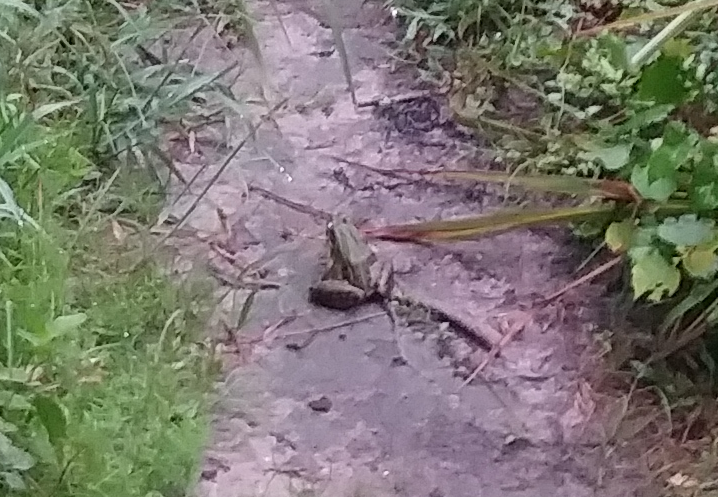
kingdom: Animalia
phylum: Chordata
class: Amphibia
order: Anura
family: Ranidae
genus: Lithobates
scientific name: Lithobates sphenocephalus
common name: Southern leopard frog
